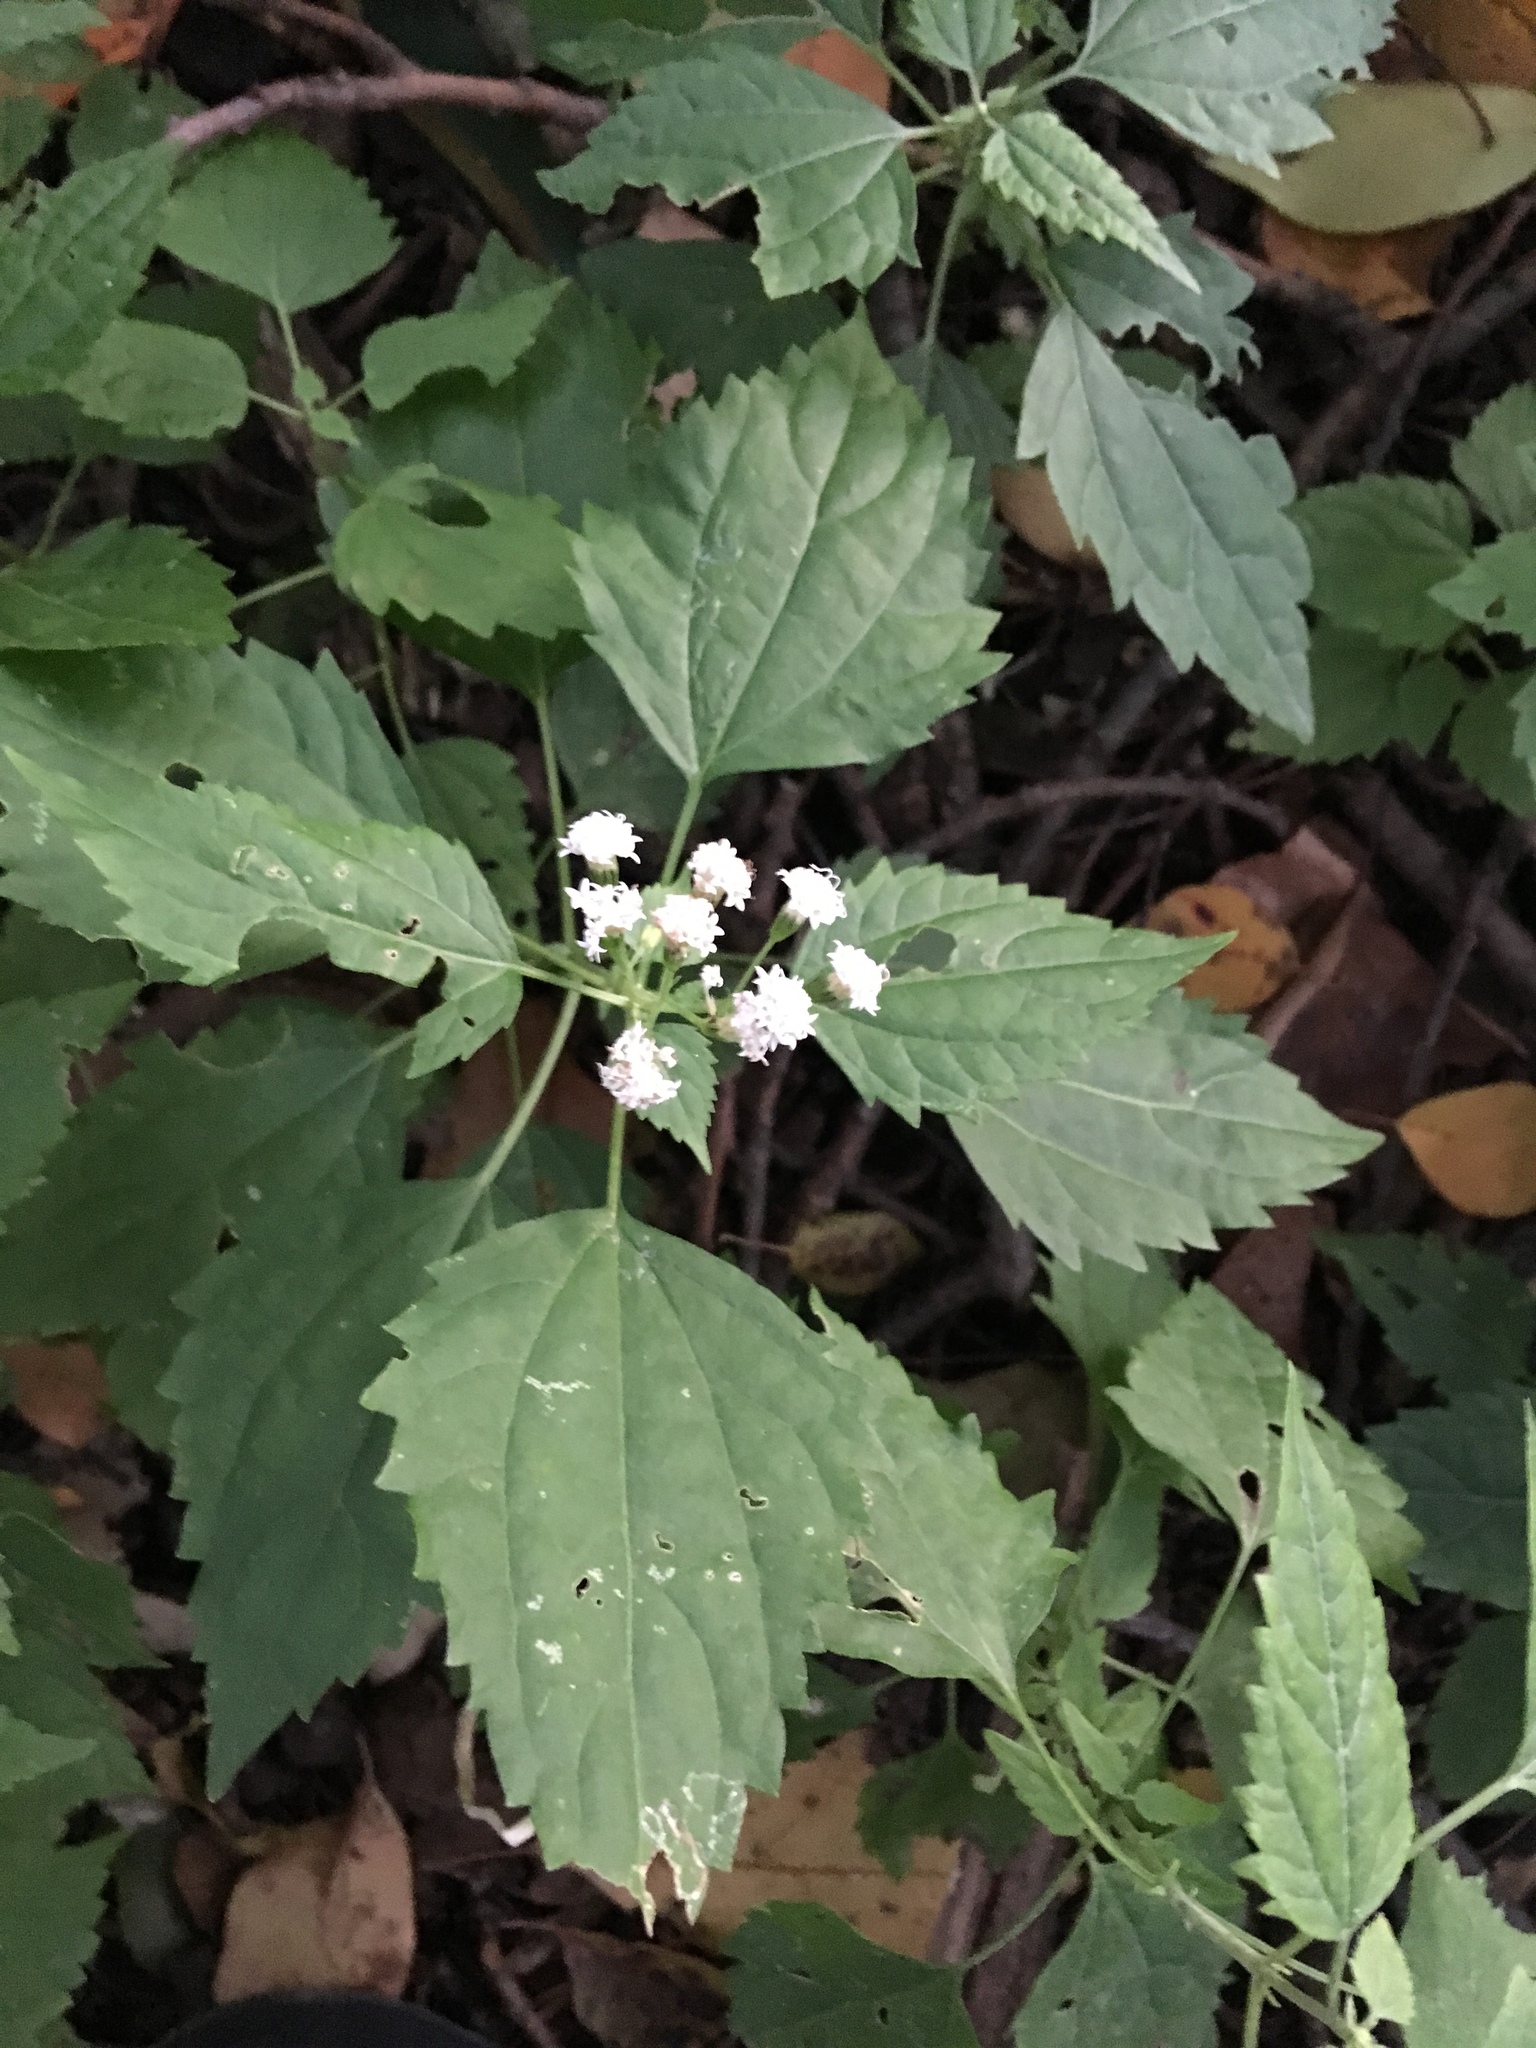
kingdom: Plantae
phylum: Tracheophyta
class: Magnoliopsida
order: Asterales
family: Asteraceae
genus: Ageratina
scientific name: Ageratina altissima
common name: White snakeroot
